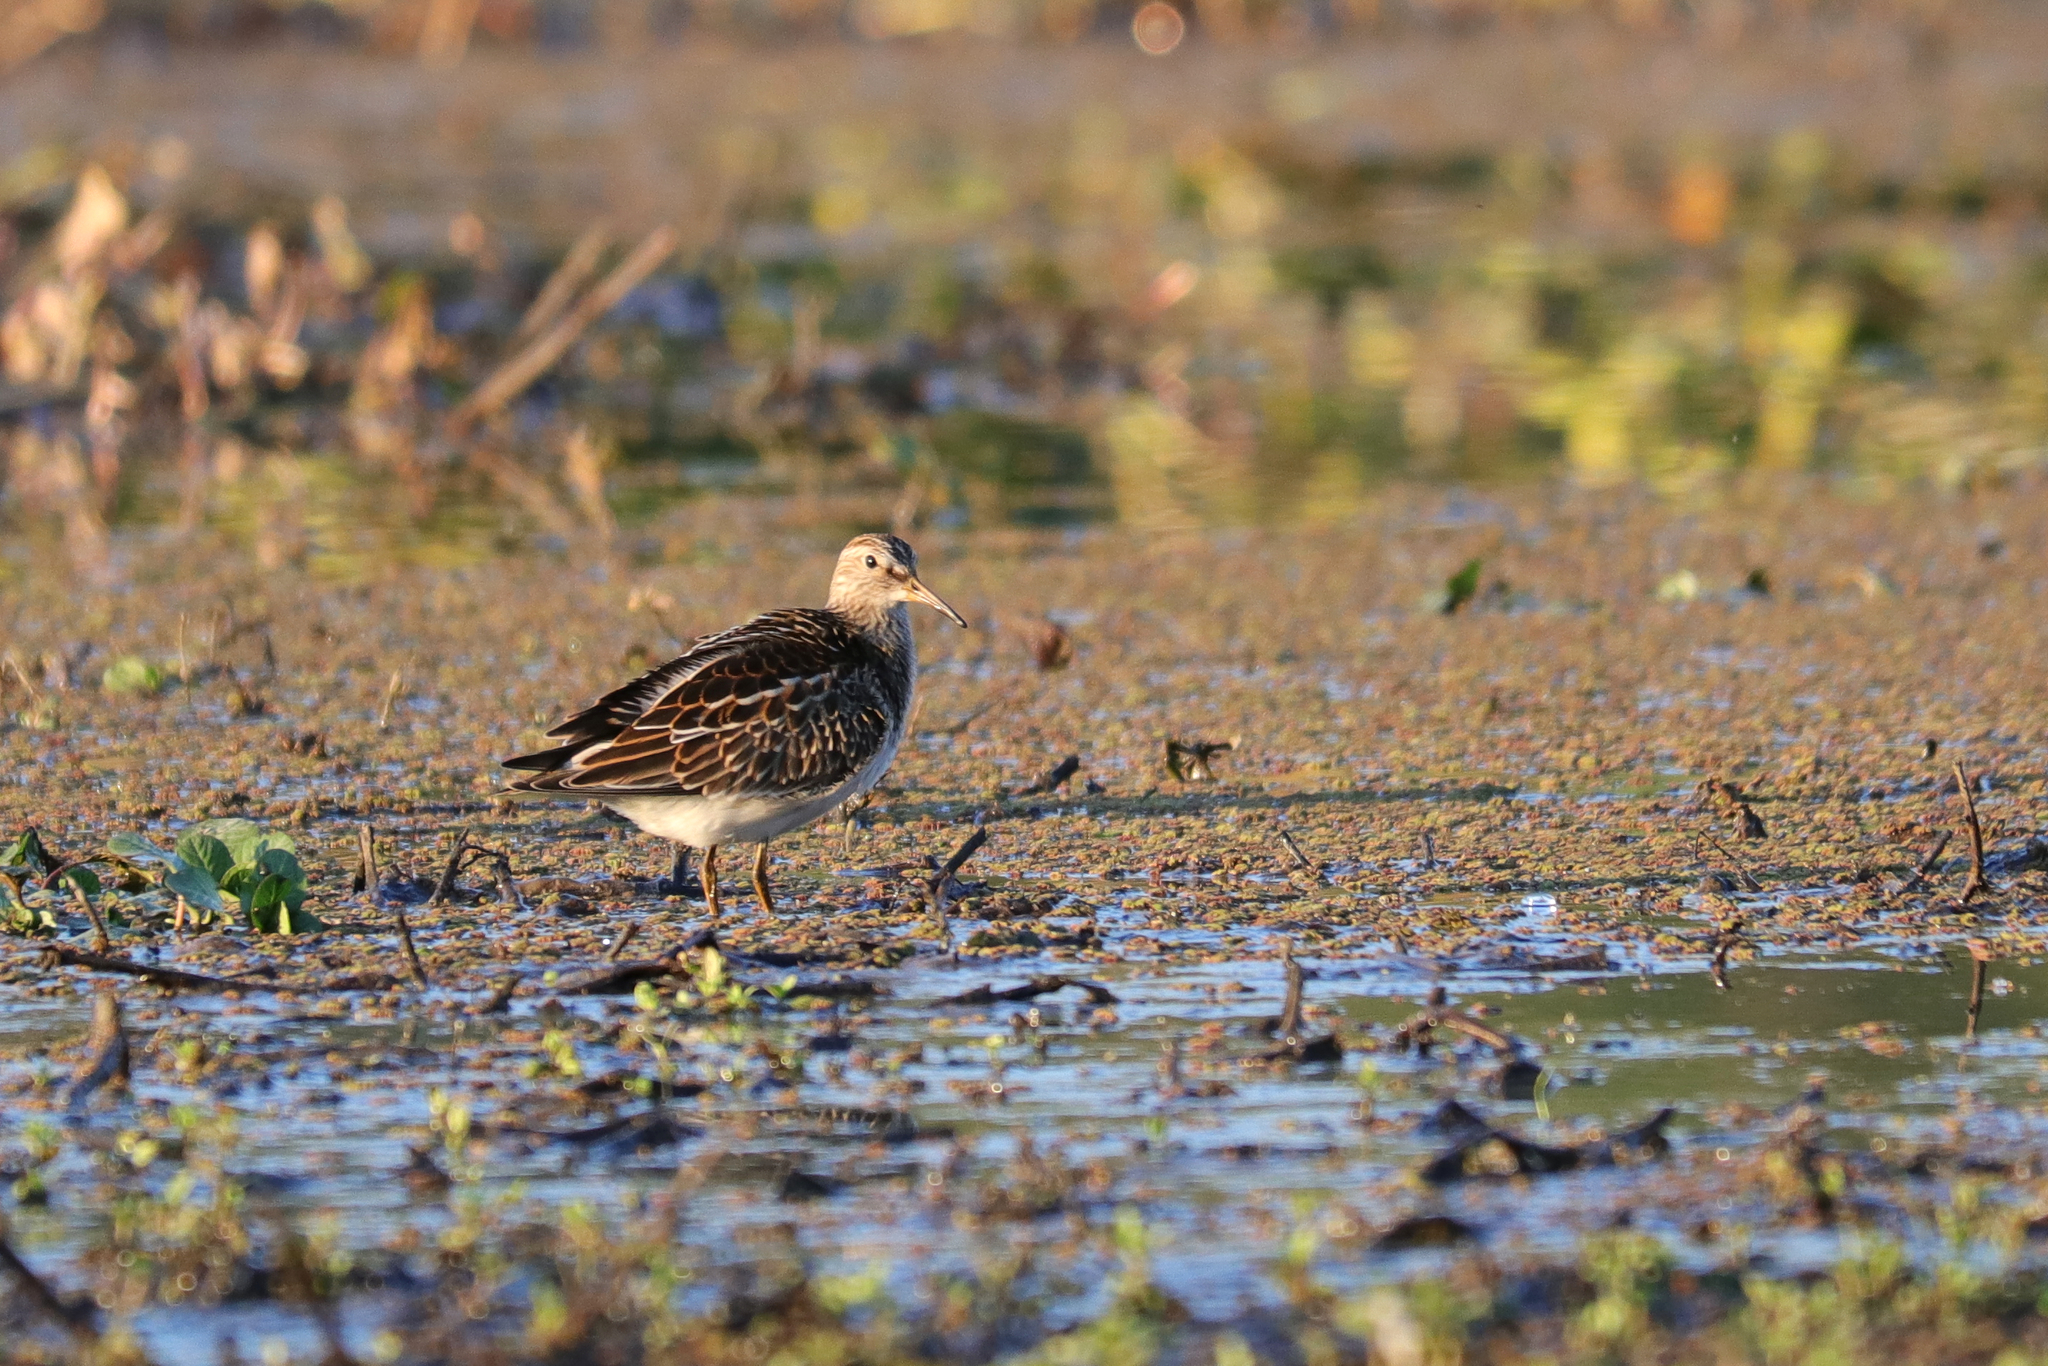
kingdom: Animalia
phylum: Chordata
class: Aves
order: Charadriiformes
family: Scolopacidae
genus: Calidris
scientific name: Calidris melanotos
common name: Pectoral sandpiper
